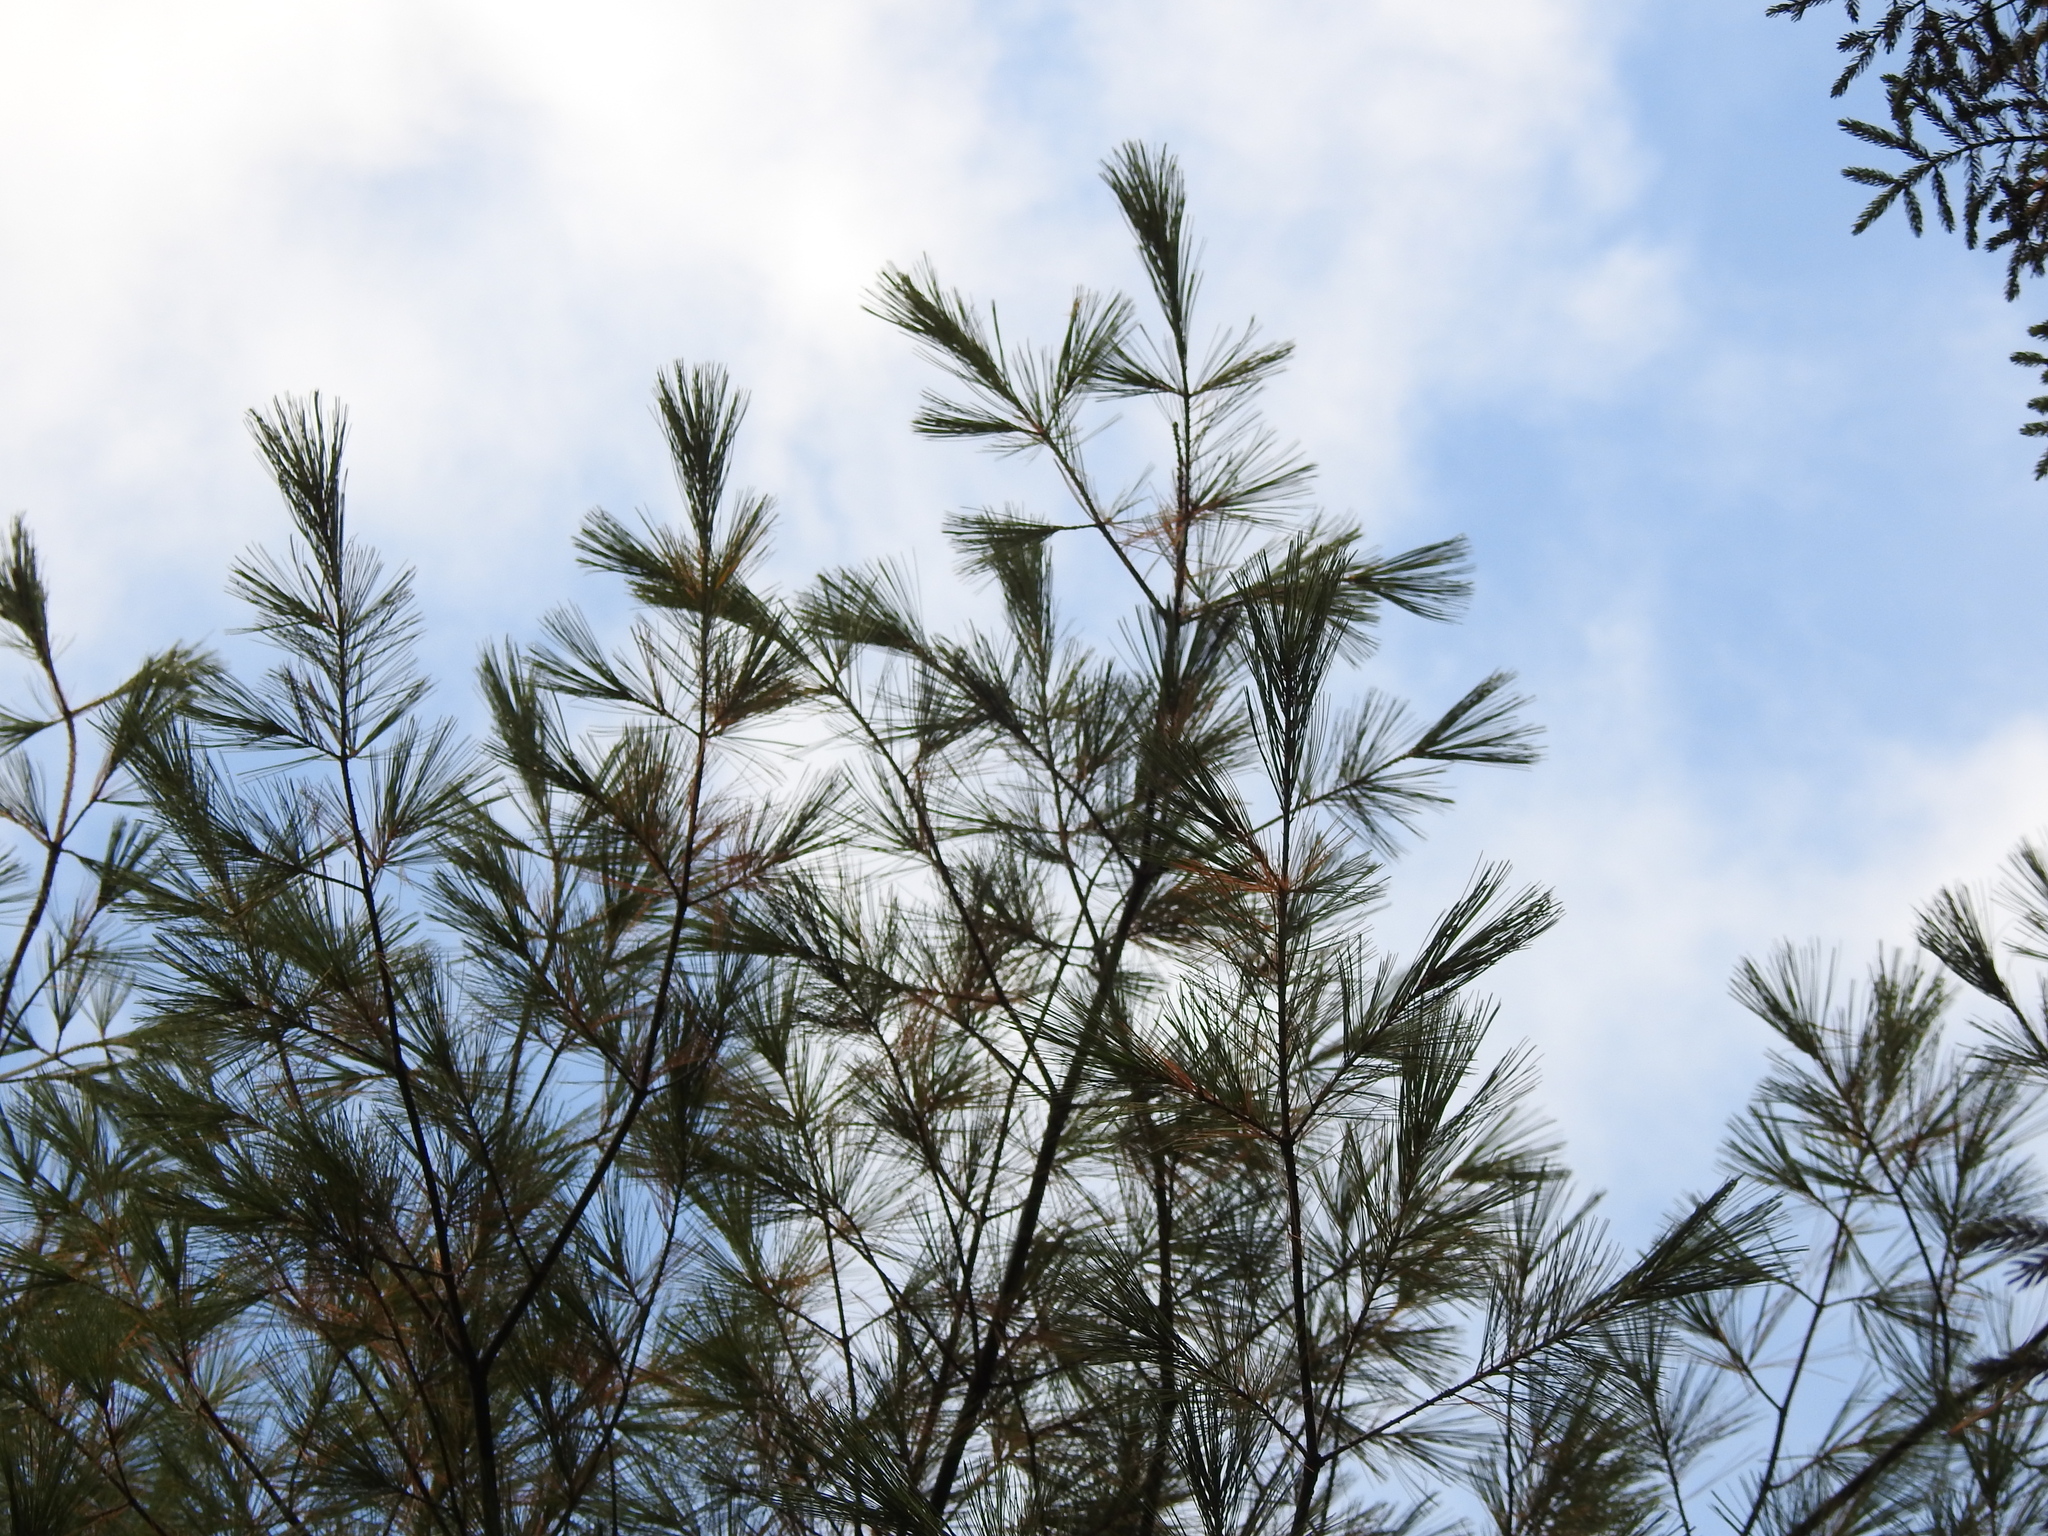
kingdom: Plantae
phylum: Tracheophyta
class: Pinopsida
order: Pinales
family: Pinaceae
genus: Pinus
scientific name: Pinus strobus
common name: Weymouth pine
